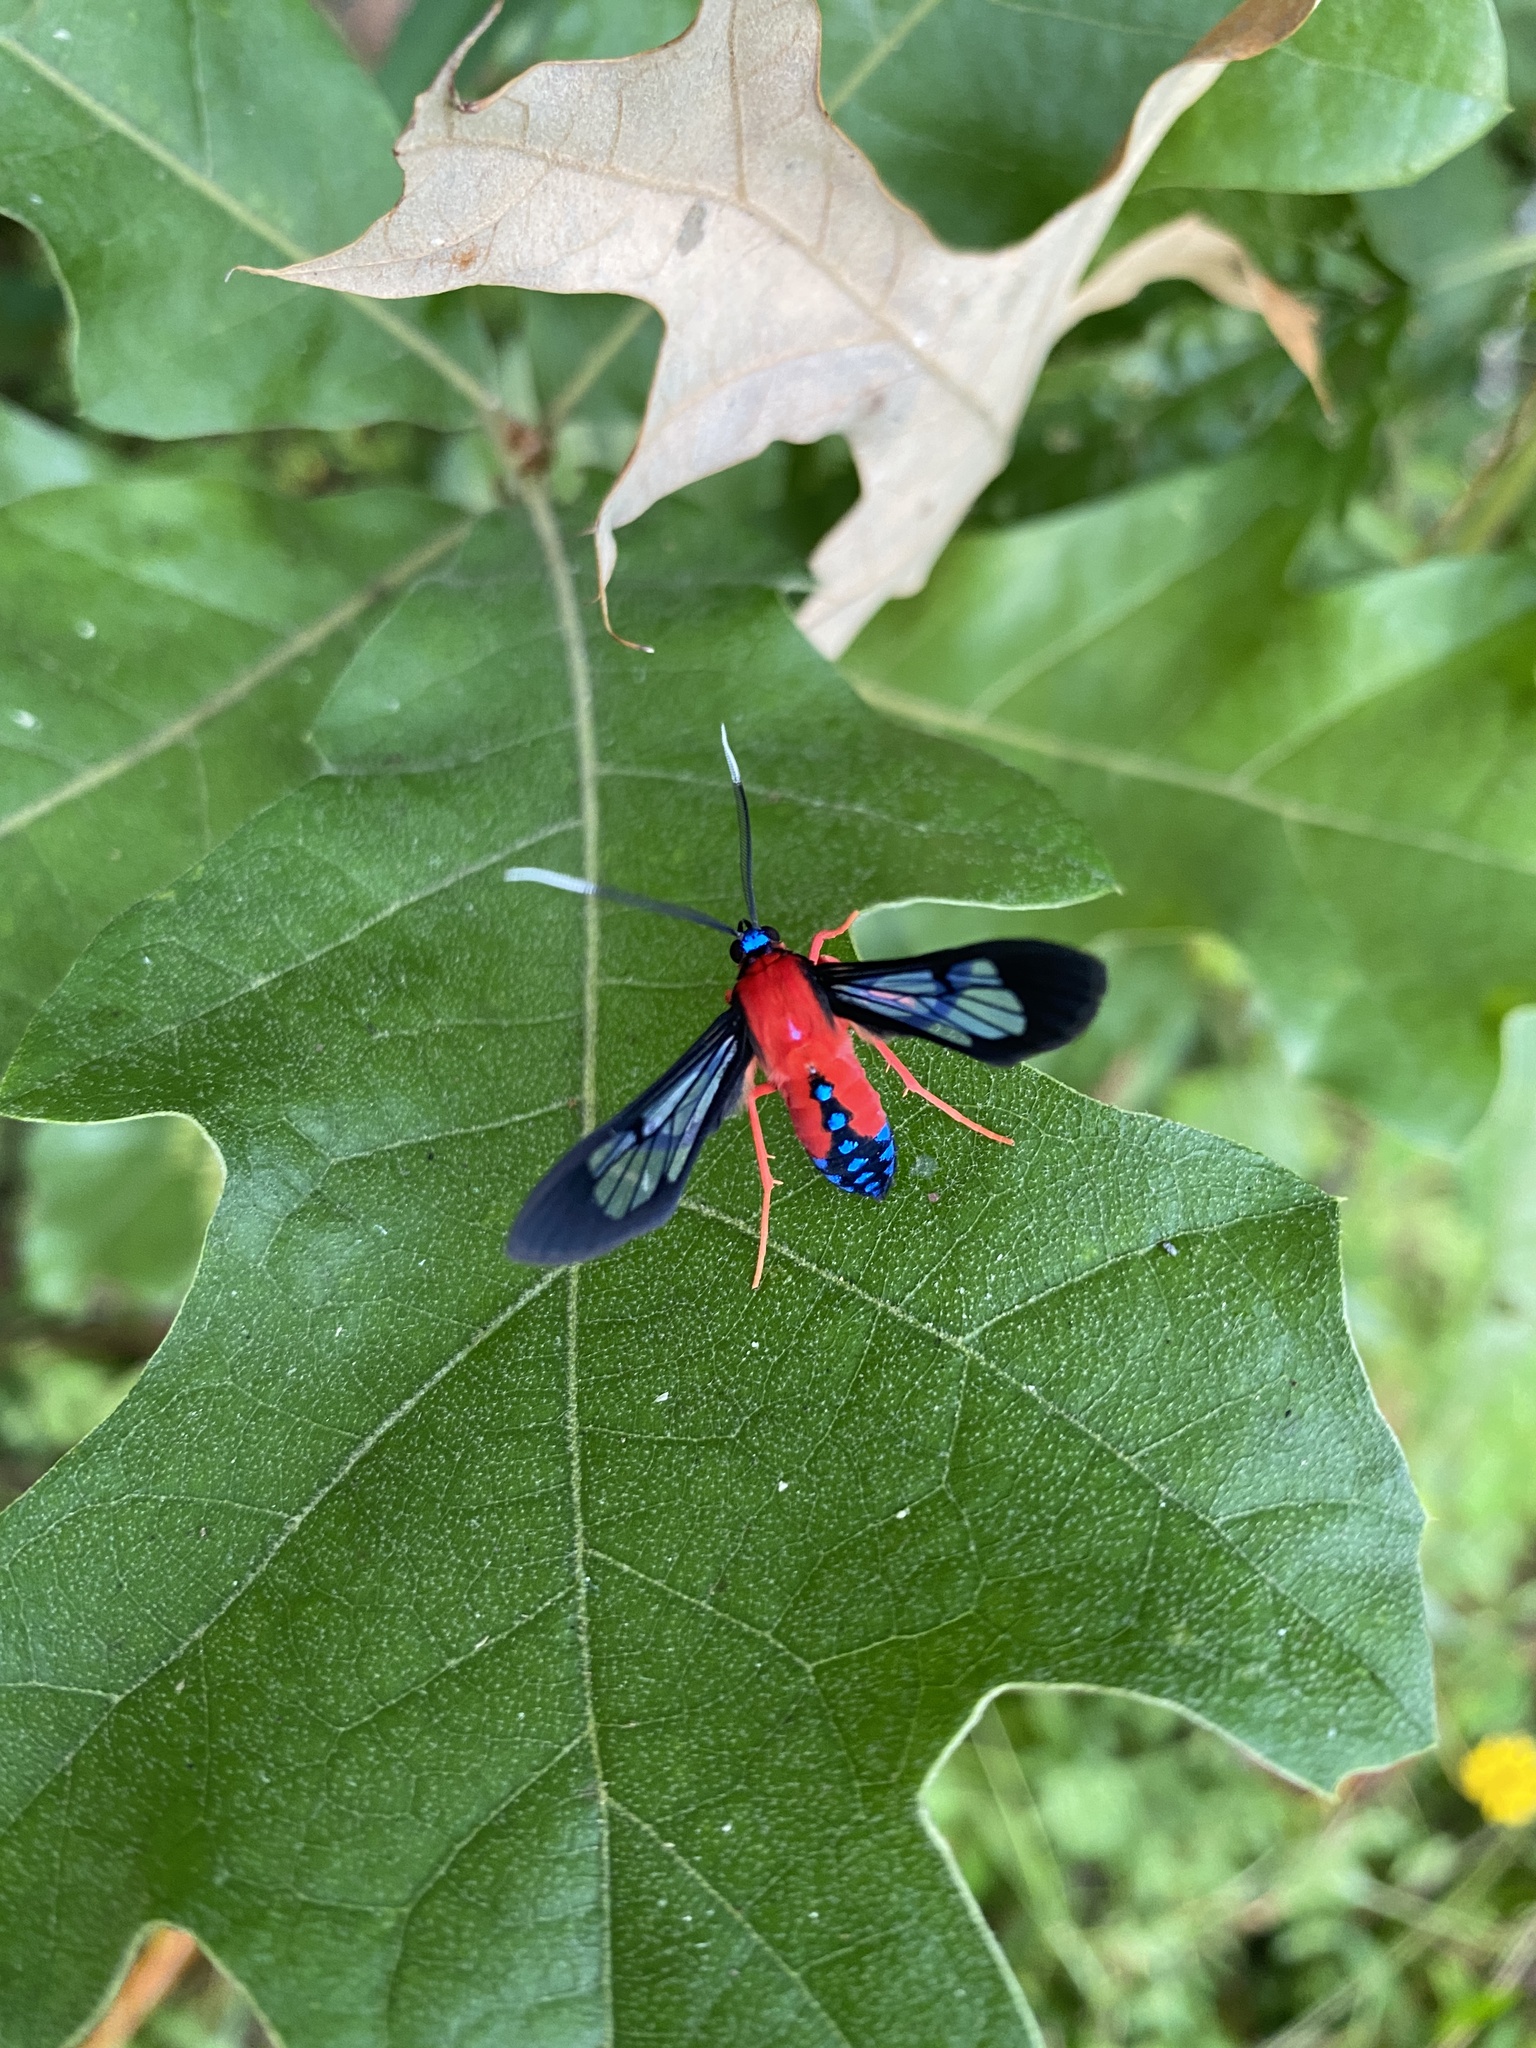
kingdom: Animalia
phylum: Arthropoda
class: Insecta
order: Lepidoptera
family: Erebidae
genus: Cosmosoma
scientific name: Cosmosoma myrodora
